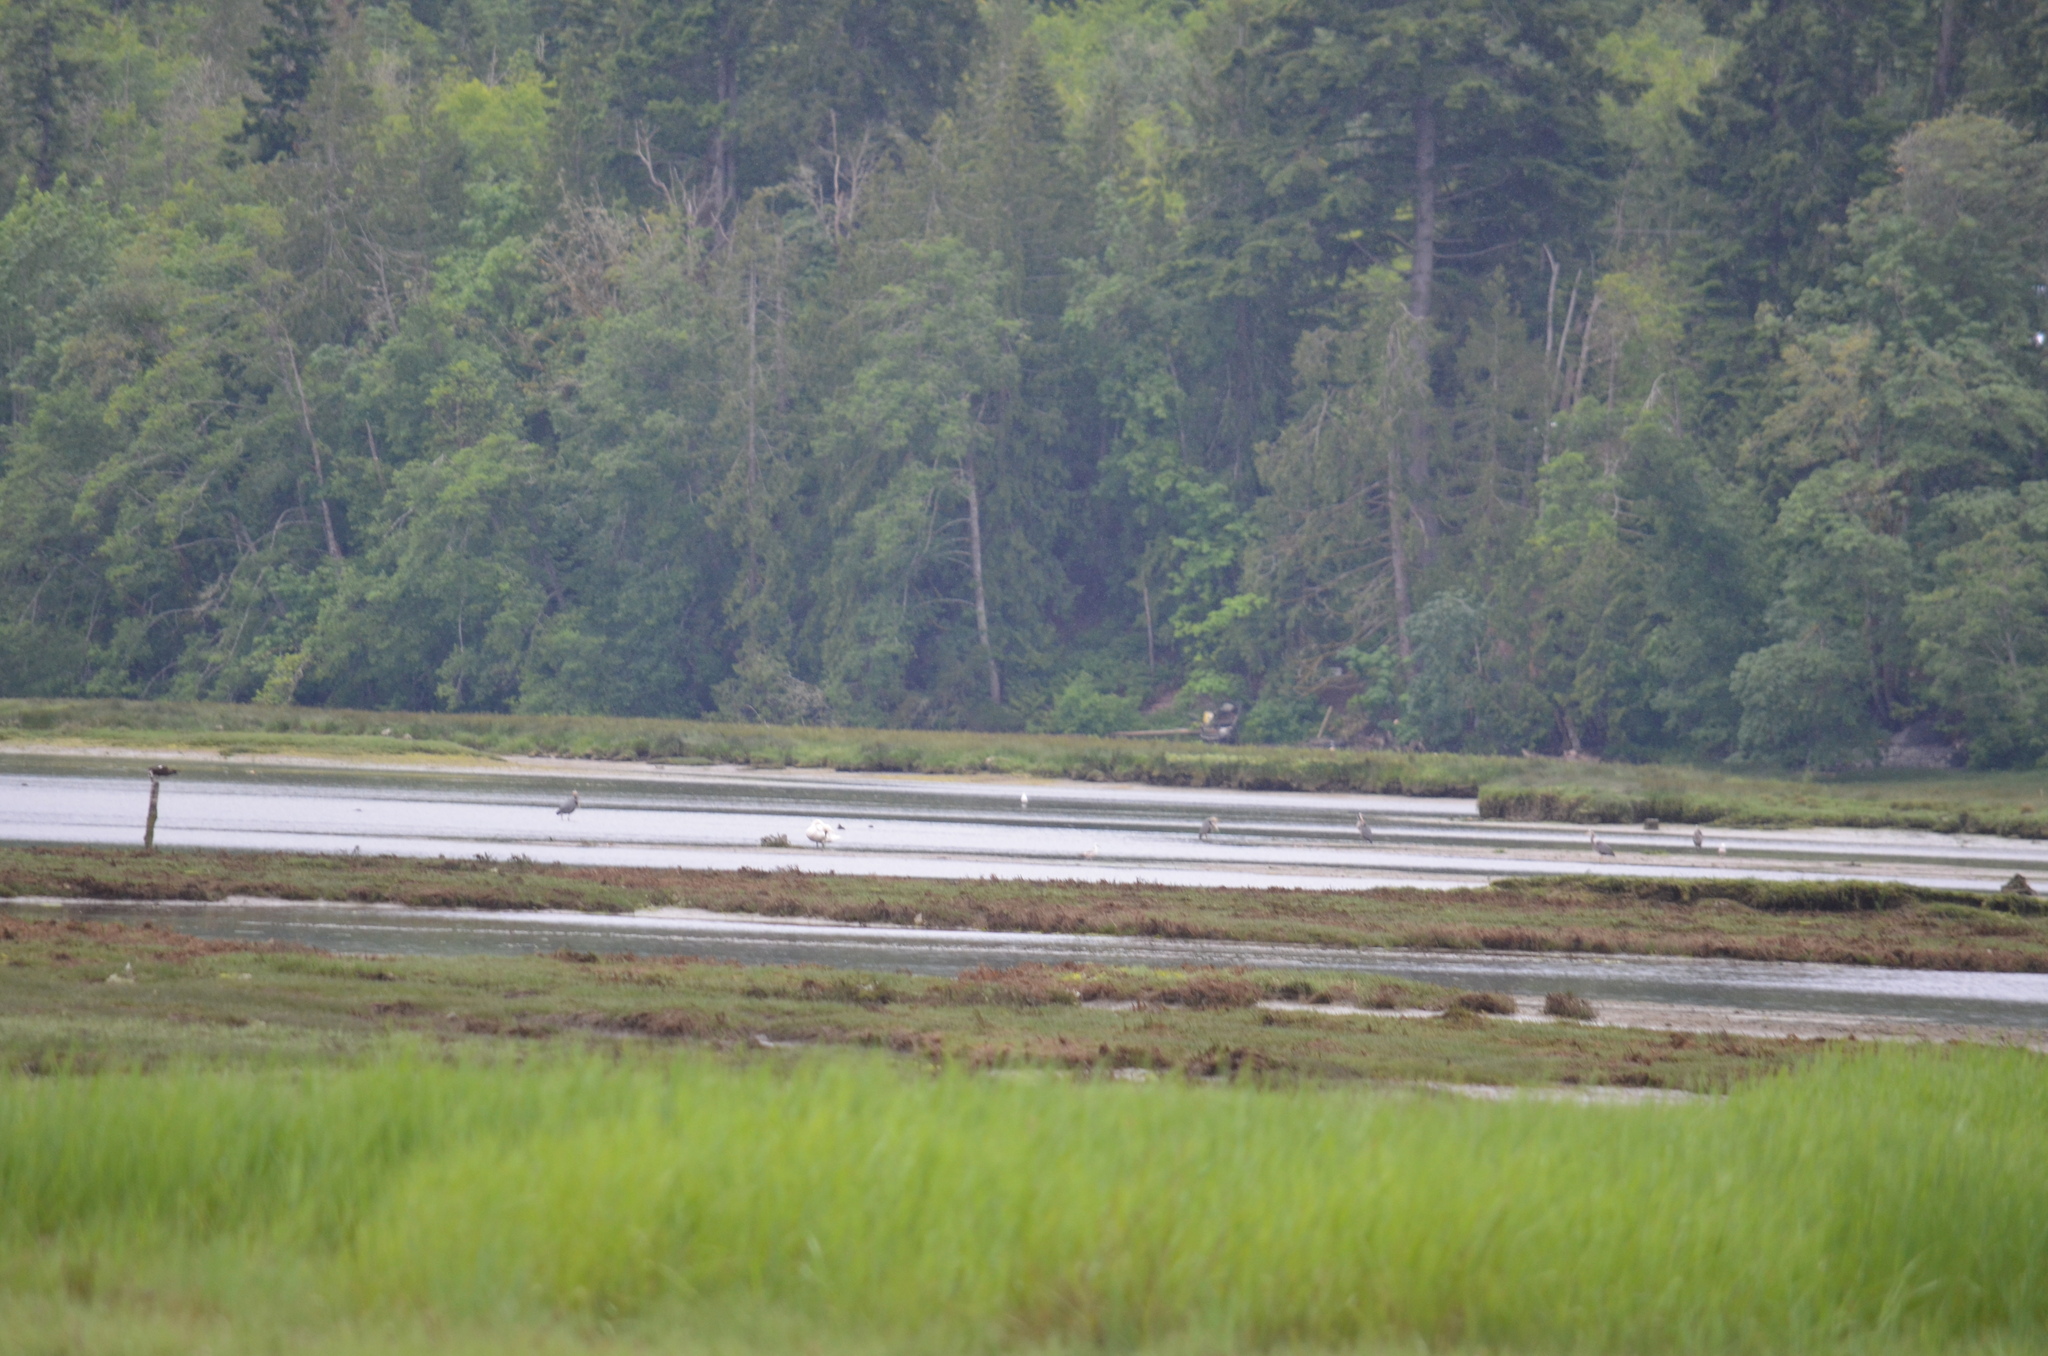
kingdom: Animalia
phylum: Chordata
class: Aves
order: Pelecaniformes
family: Ardeidae
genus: Ardea
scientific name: Ardea herodias
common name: Great blue heron
